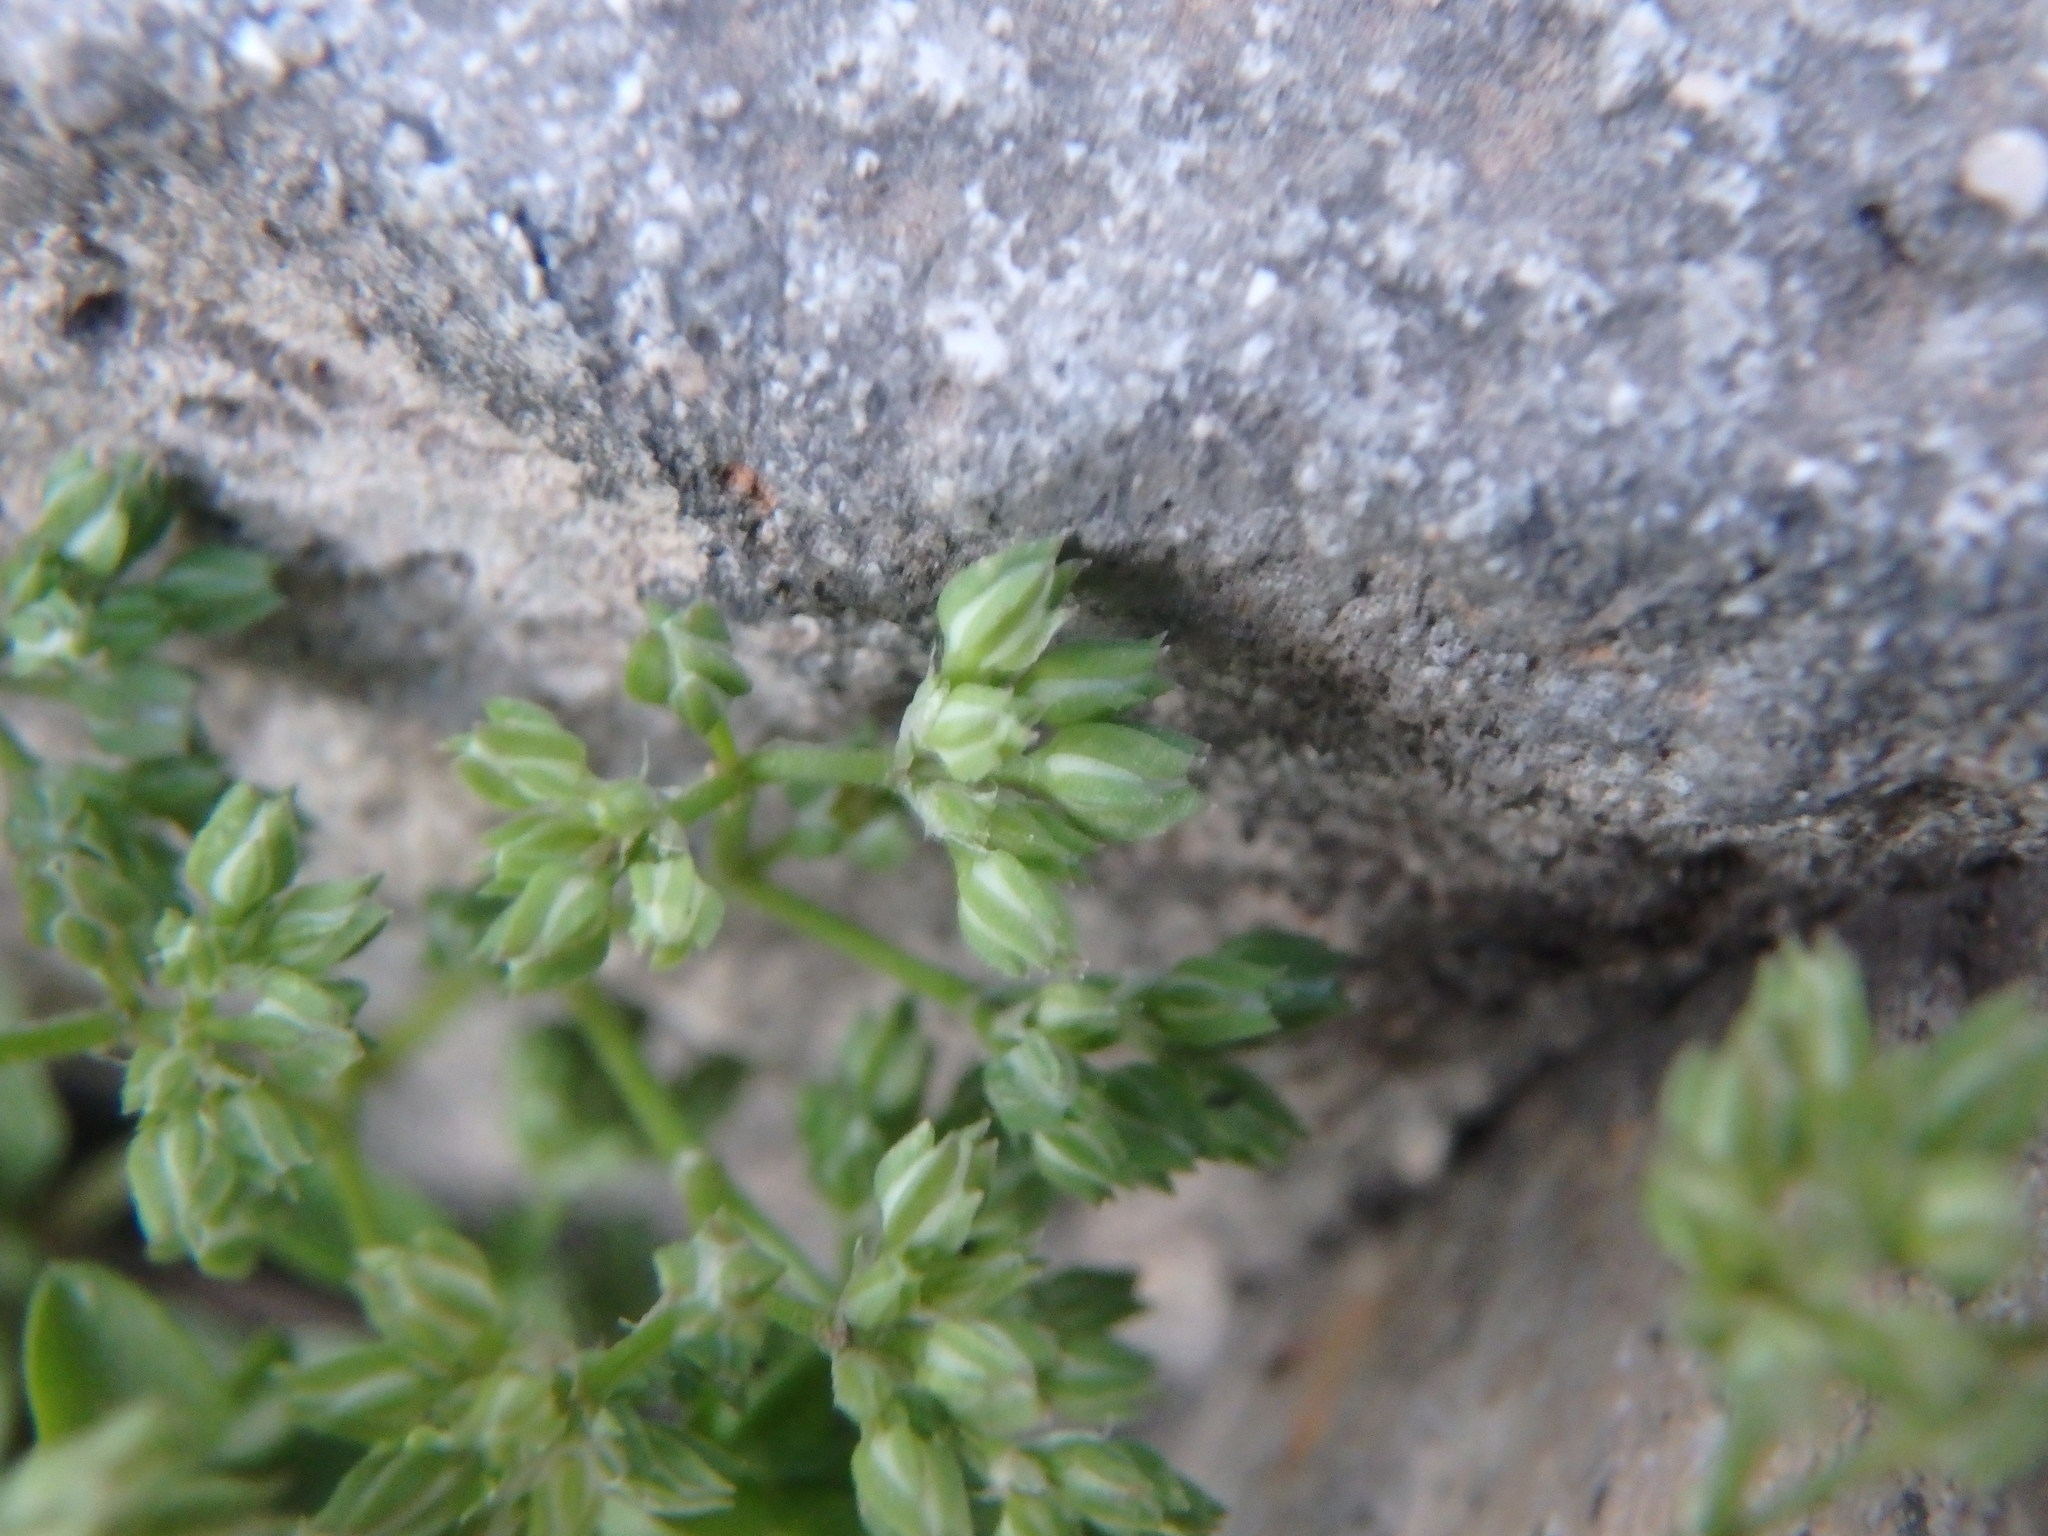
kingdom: Plantae
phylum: Tracheophyta
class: Magnoliopsida
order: Caryophyllales
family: Caryophyllaceae
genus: Polycarpon
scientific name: Polycarpon tetraphyllum
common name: Four-leaved all-seed
